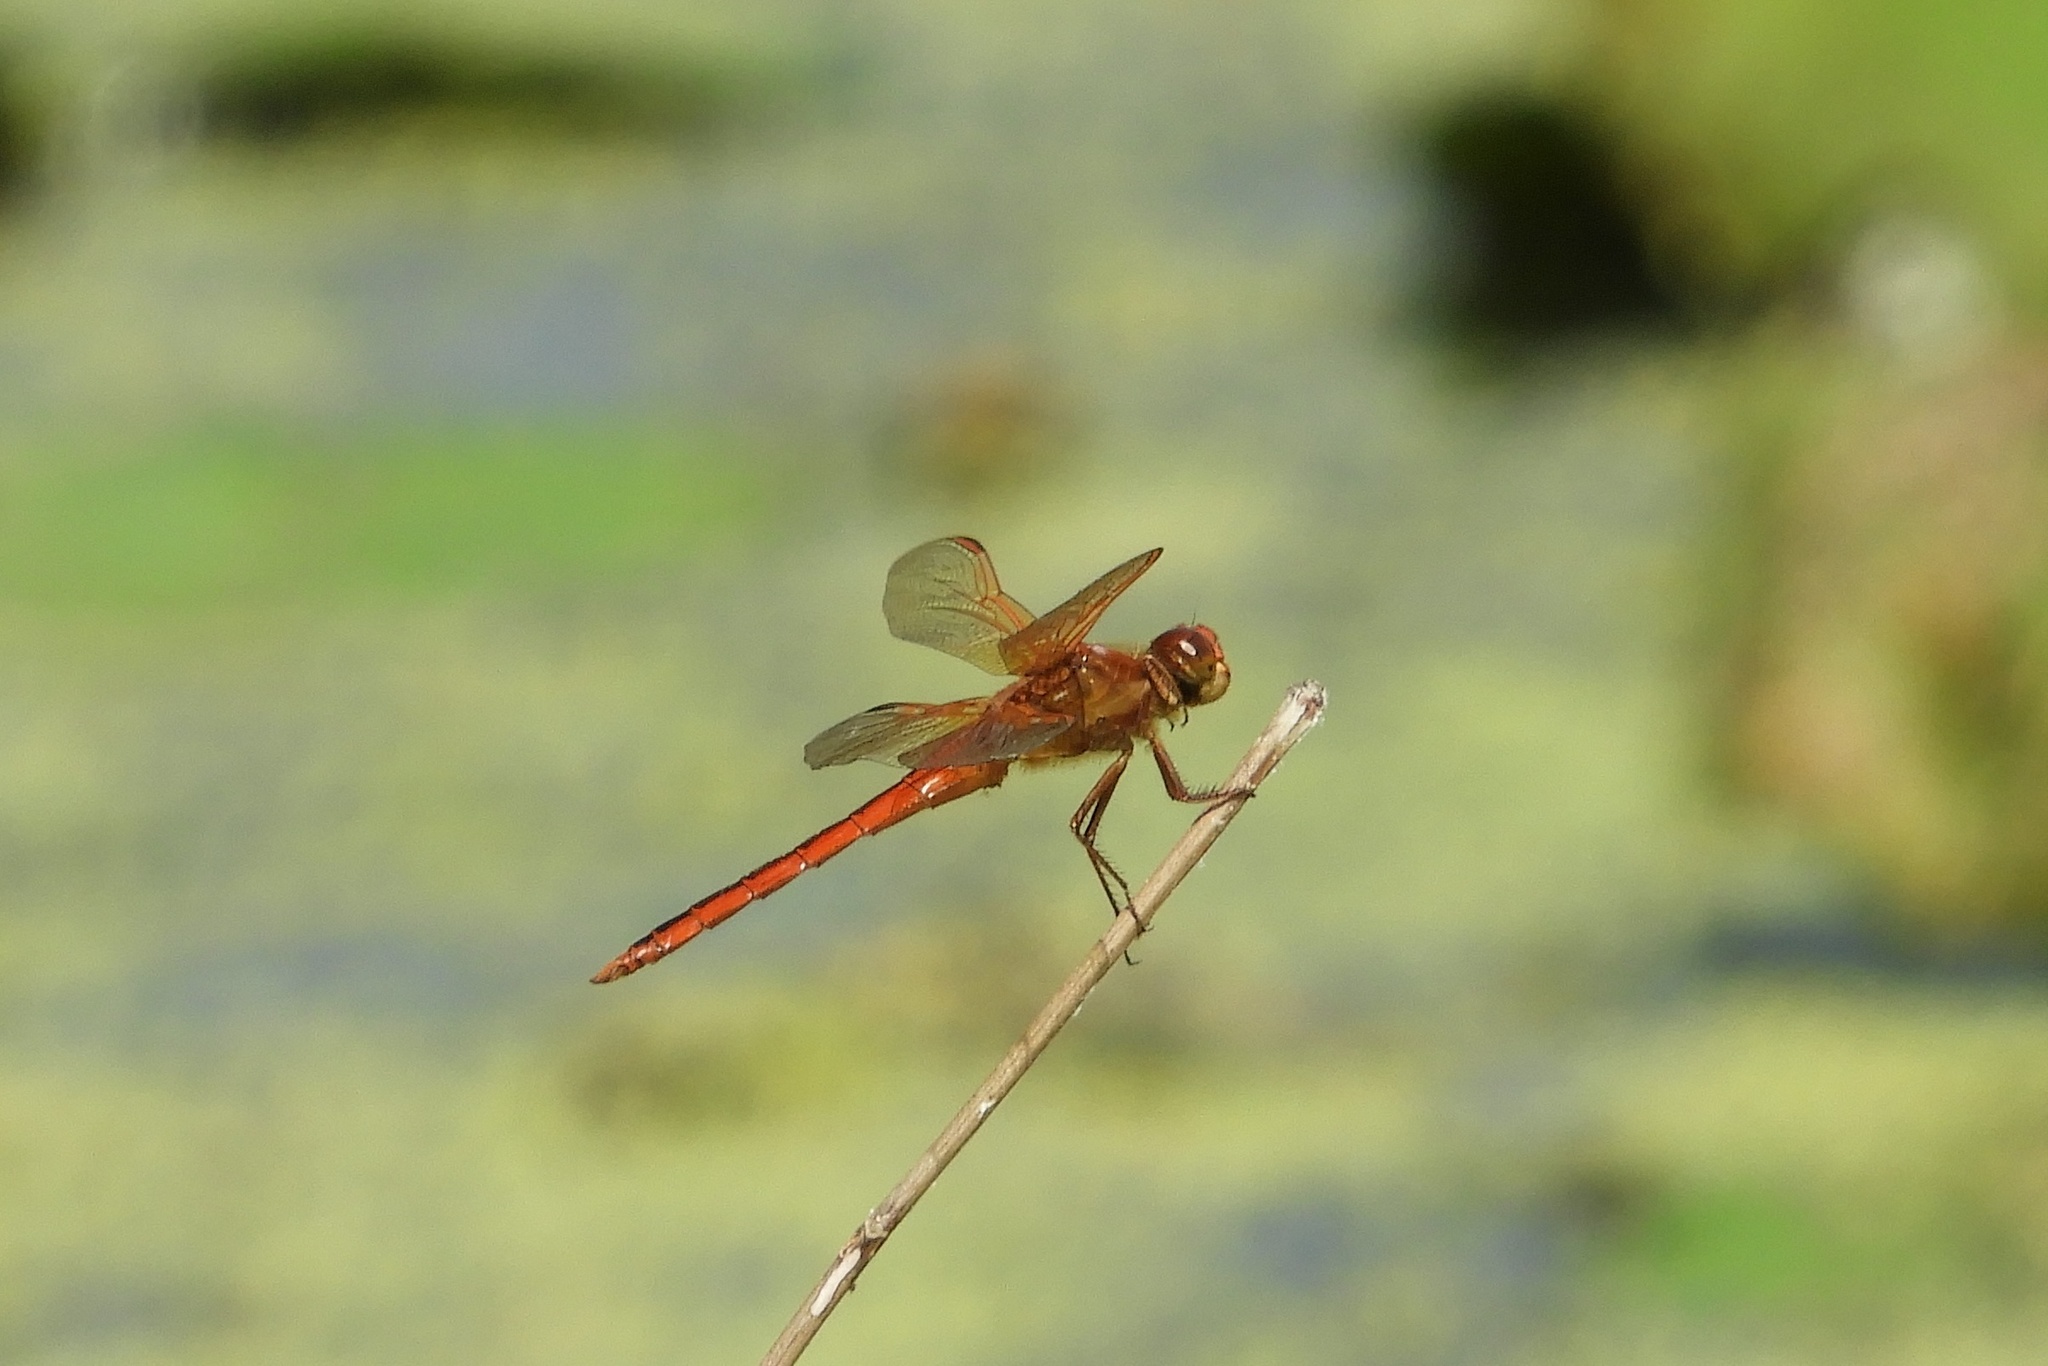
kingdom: Animalia
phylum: Arthropoda
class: Insecta
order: Odonata
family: Libellulidae
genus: Libellula
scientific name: Libellula needhami
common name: Needham's skimmer
